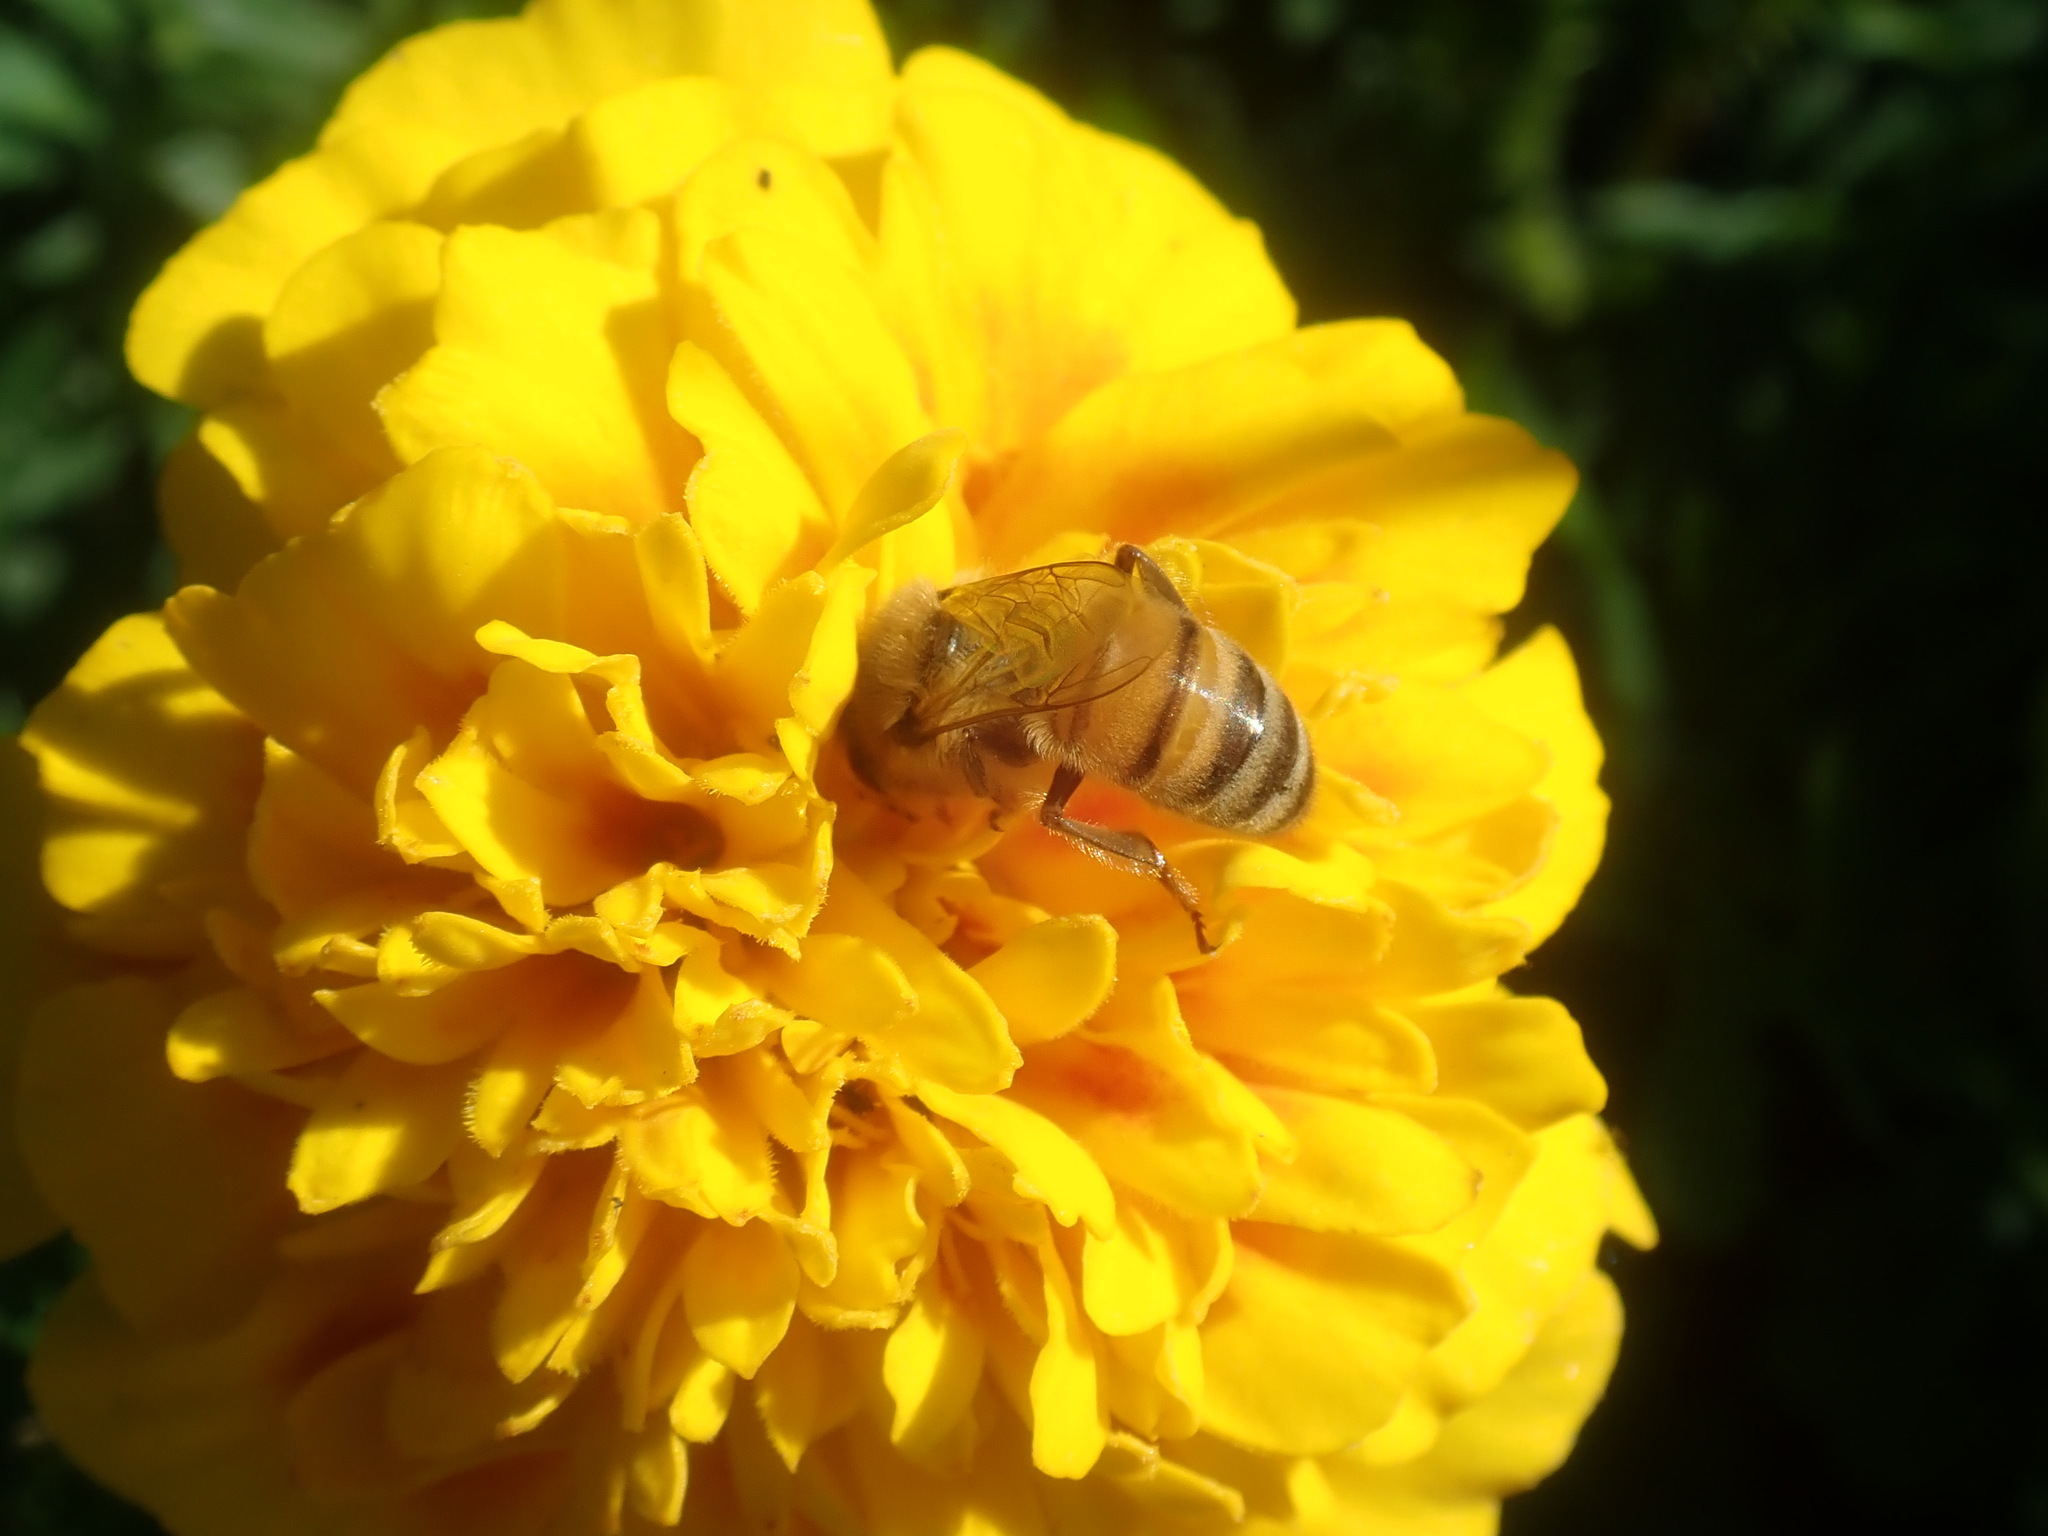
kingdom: Animalia
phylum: Arthropoda
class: Insecta
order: Hymenoptera
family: Apidae
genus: Apis
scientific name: Apis mellifera
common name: Honey bee
